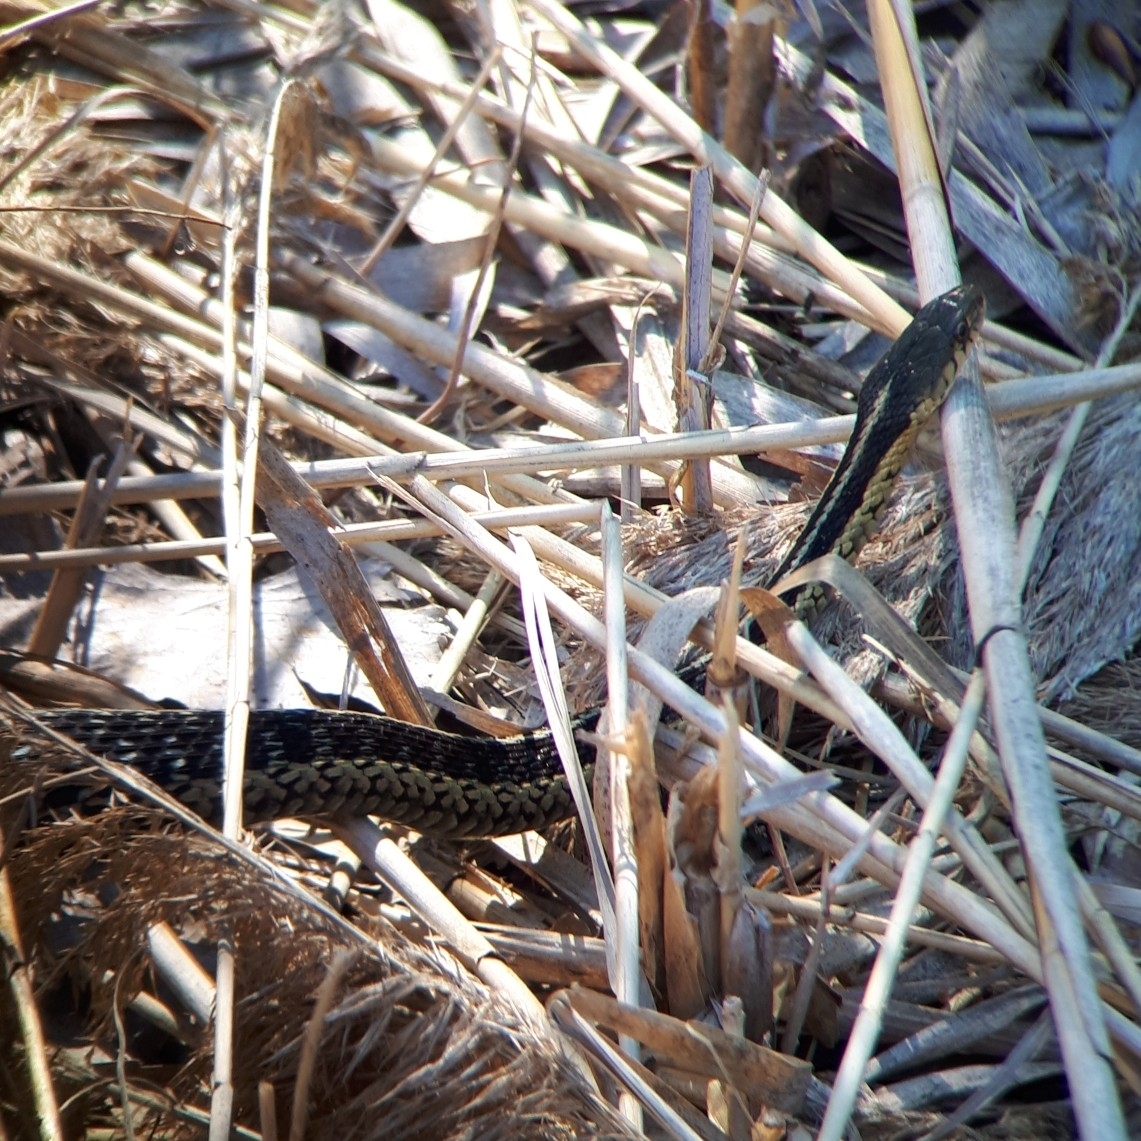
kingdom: Animalia
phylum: Chordata
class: Squamata
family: Colubridae
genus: Thamnophis
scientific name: Thamnophis sirtalis
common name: Common garter snake
